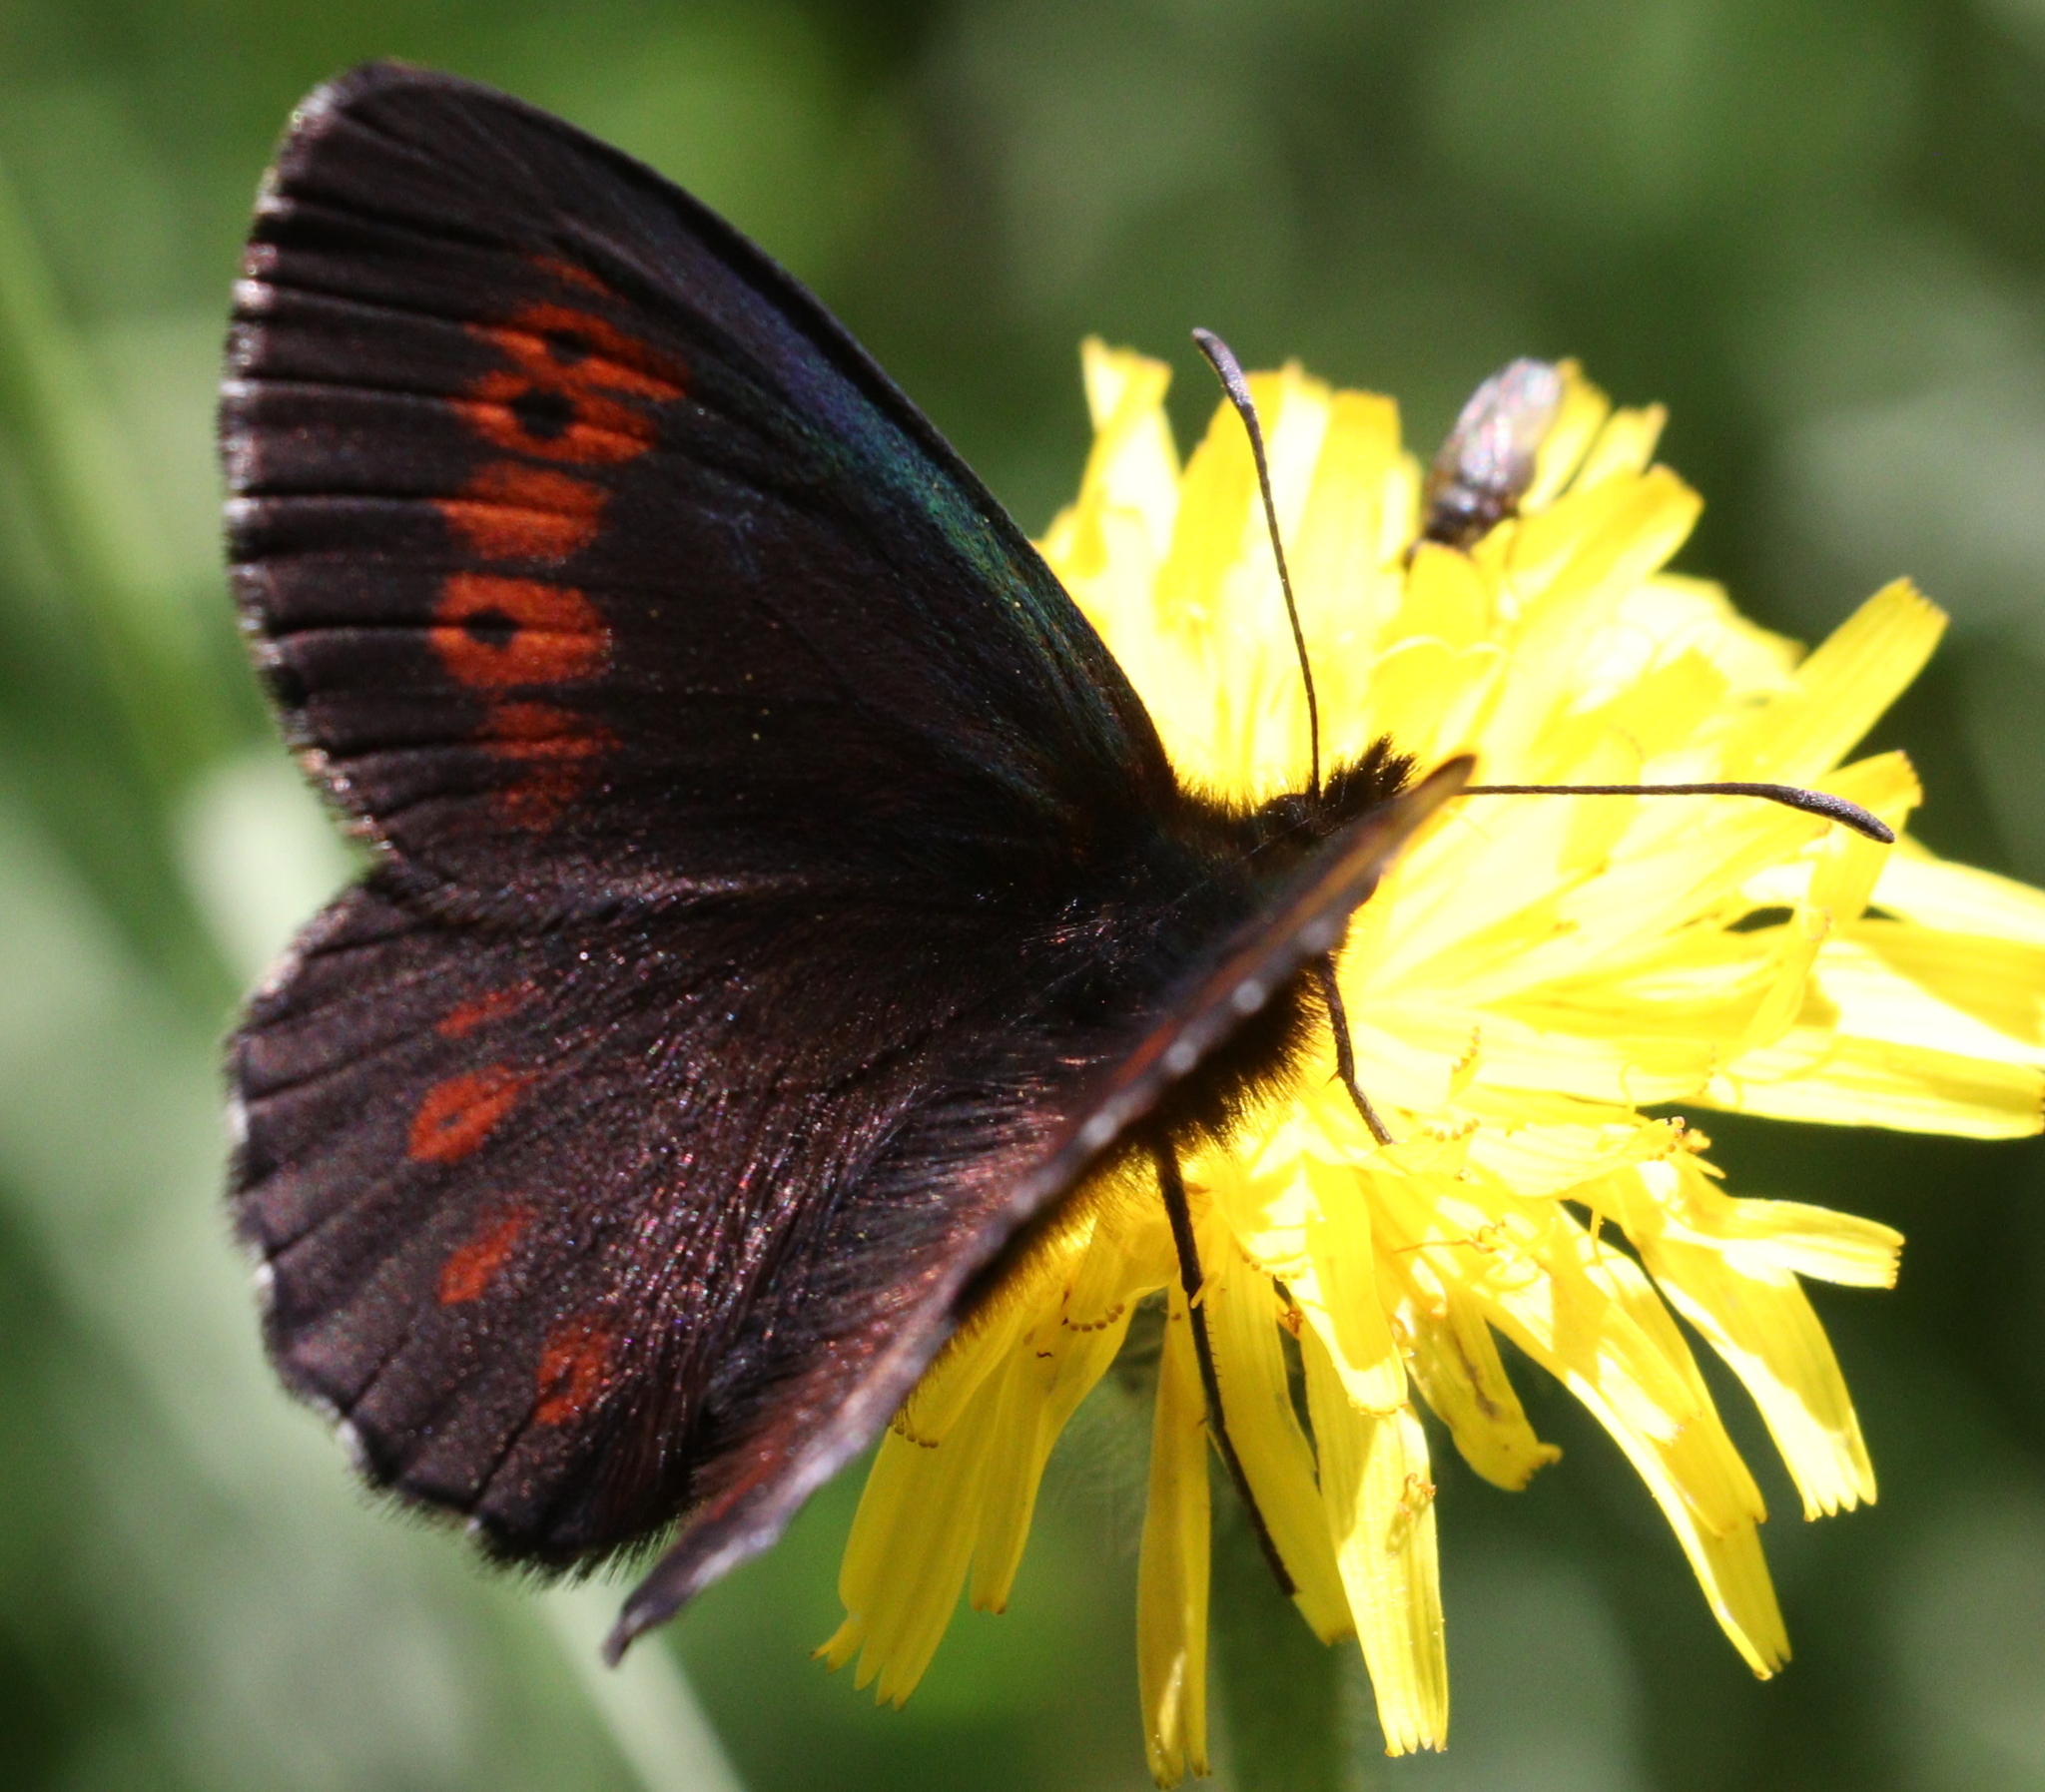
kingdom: Animalia
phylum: Arthropoda
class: Insecta
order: Lepidoptera
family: Nymphalidae
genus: Erebia
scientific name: Erebia euryale
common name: Large ringlet
